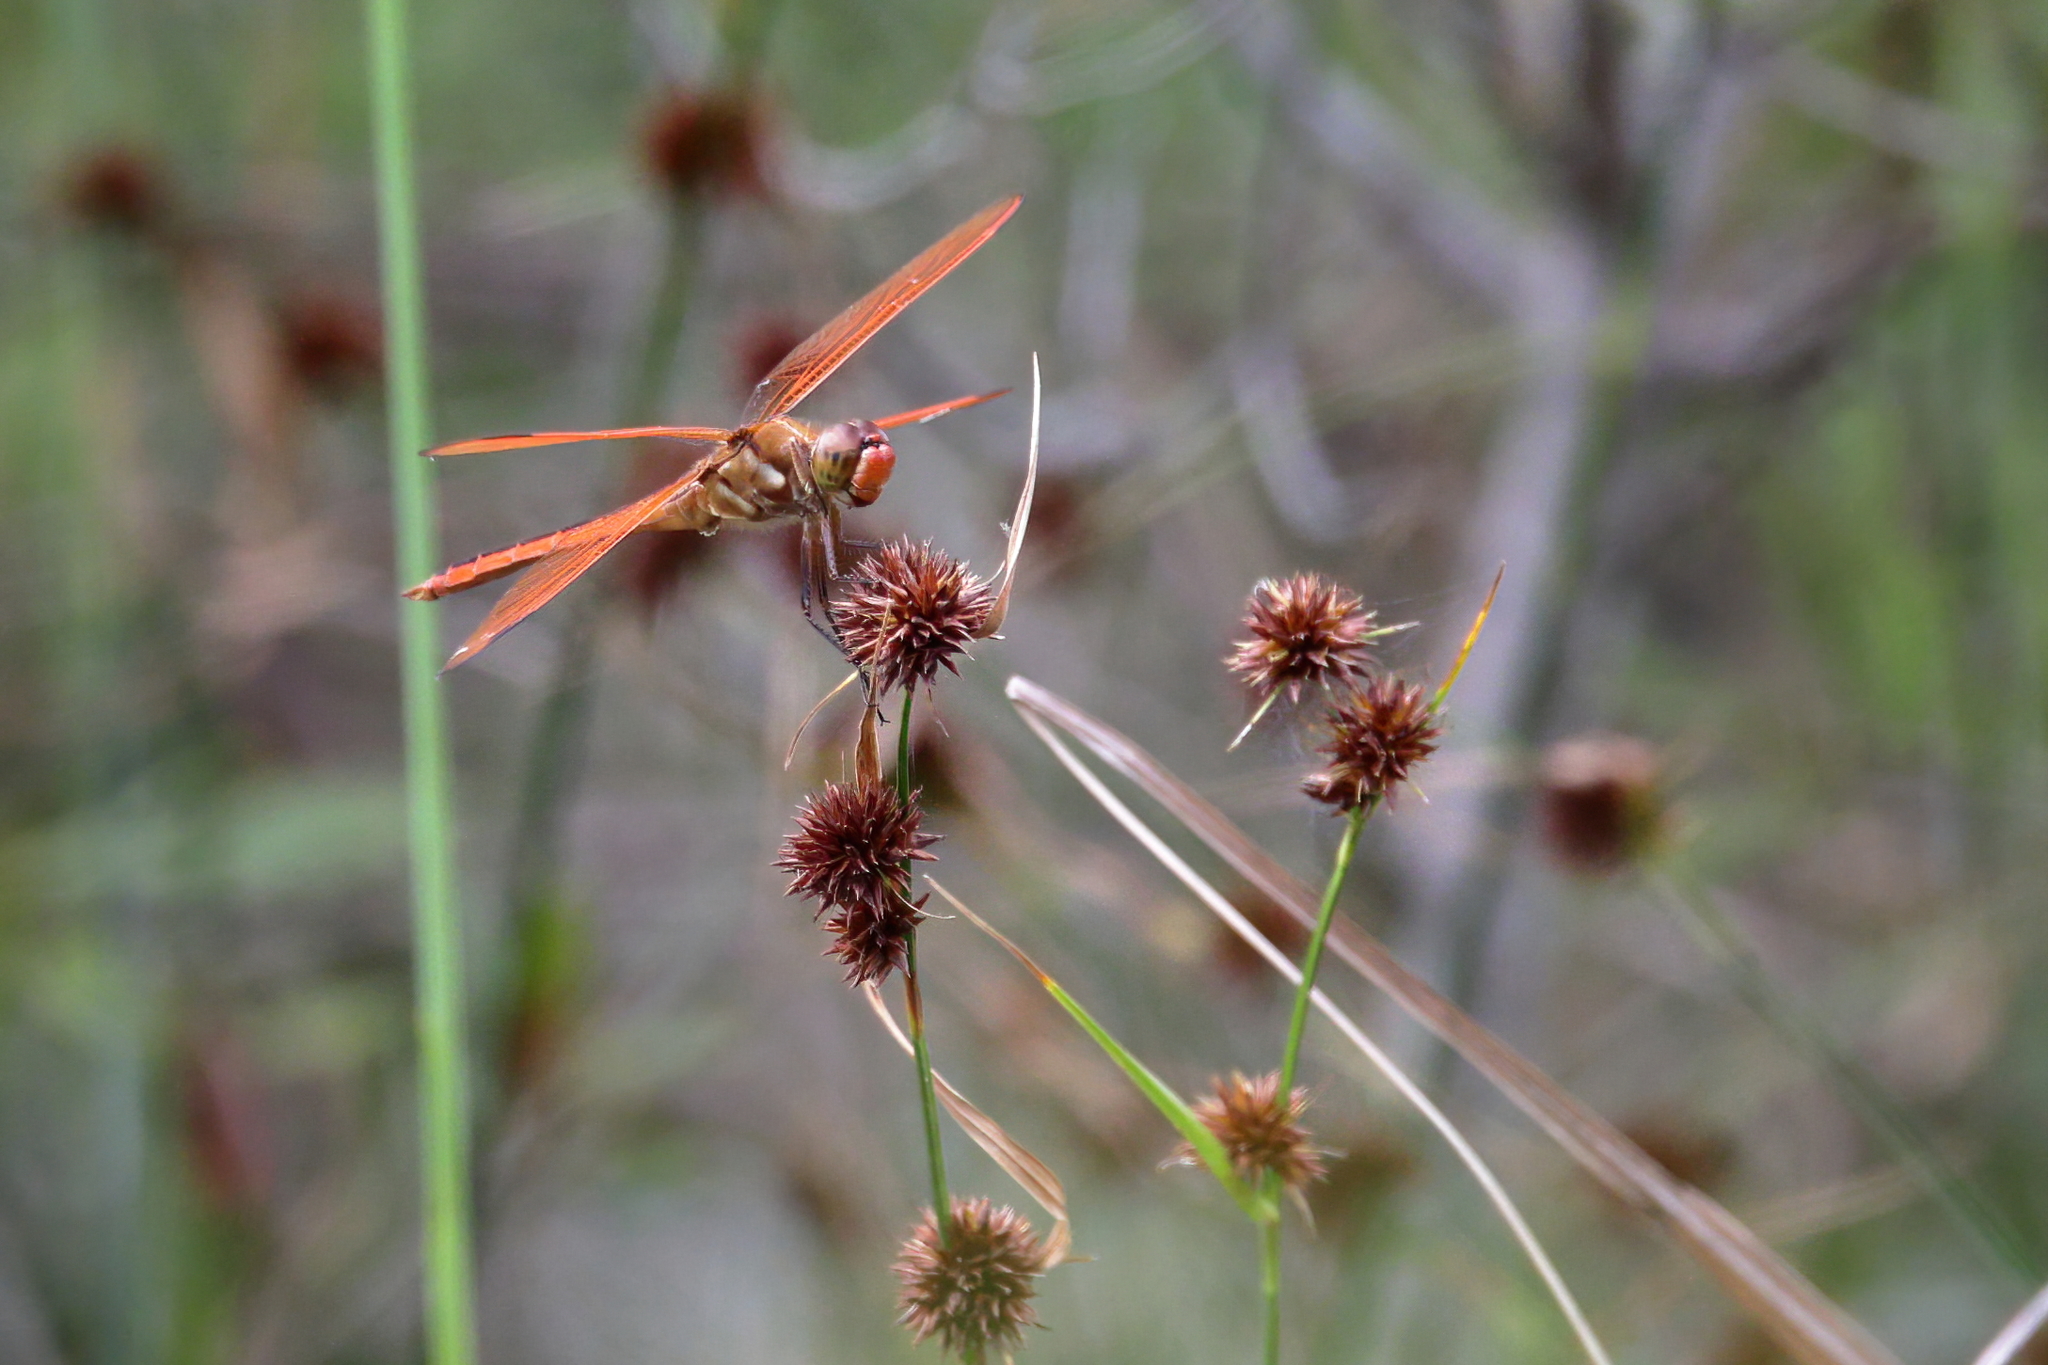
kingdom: Animalia
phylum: Arthropoda
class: Insecta
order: Odonata
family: Libellulidae
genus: Libellula
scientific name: Libellula auripennis
